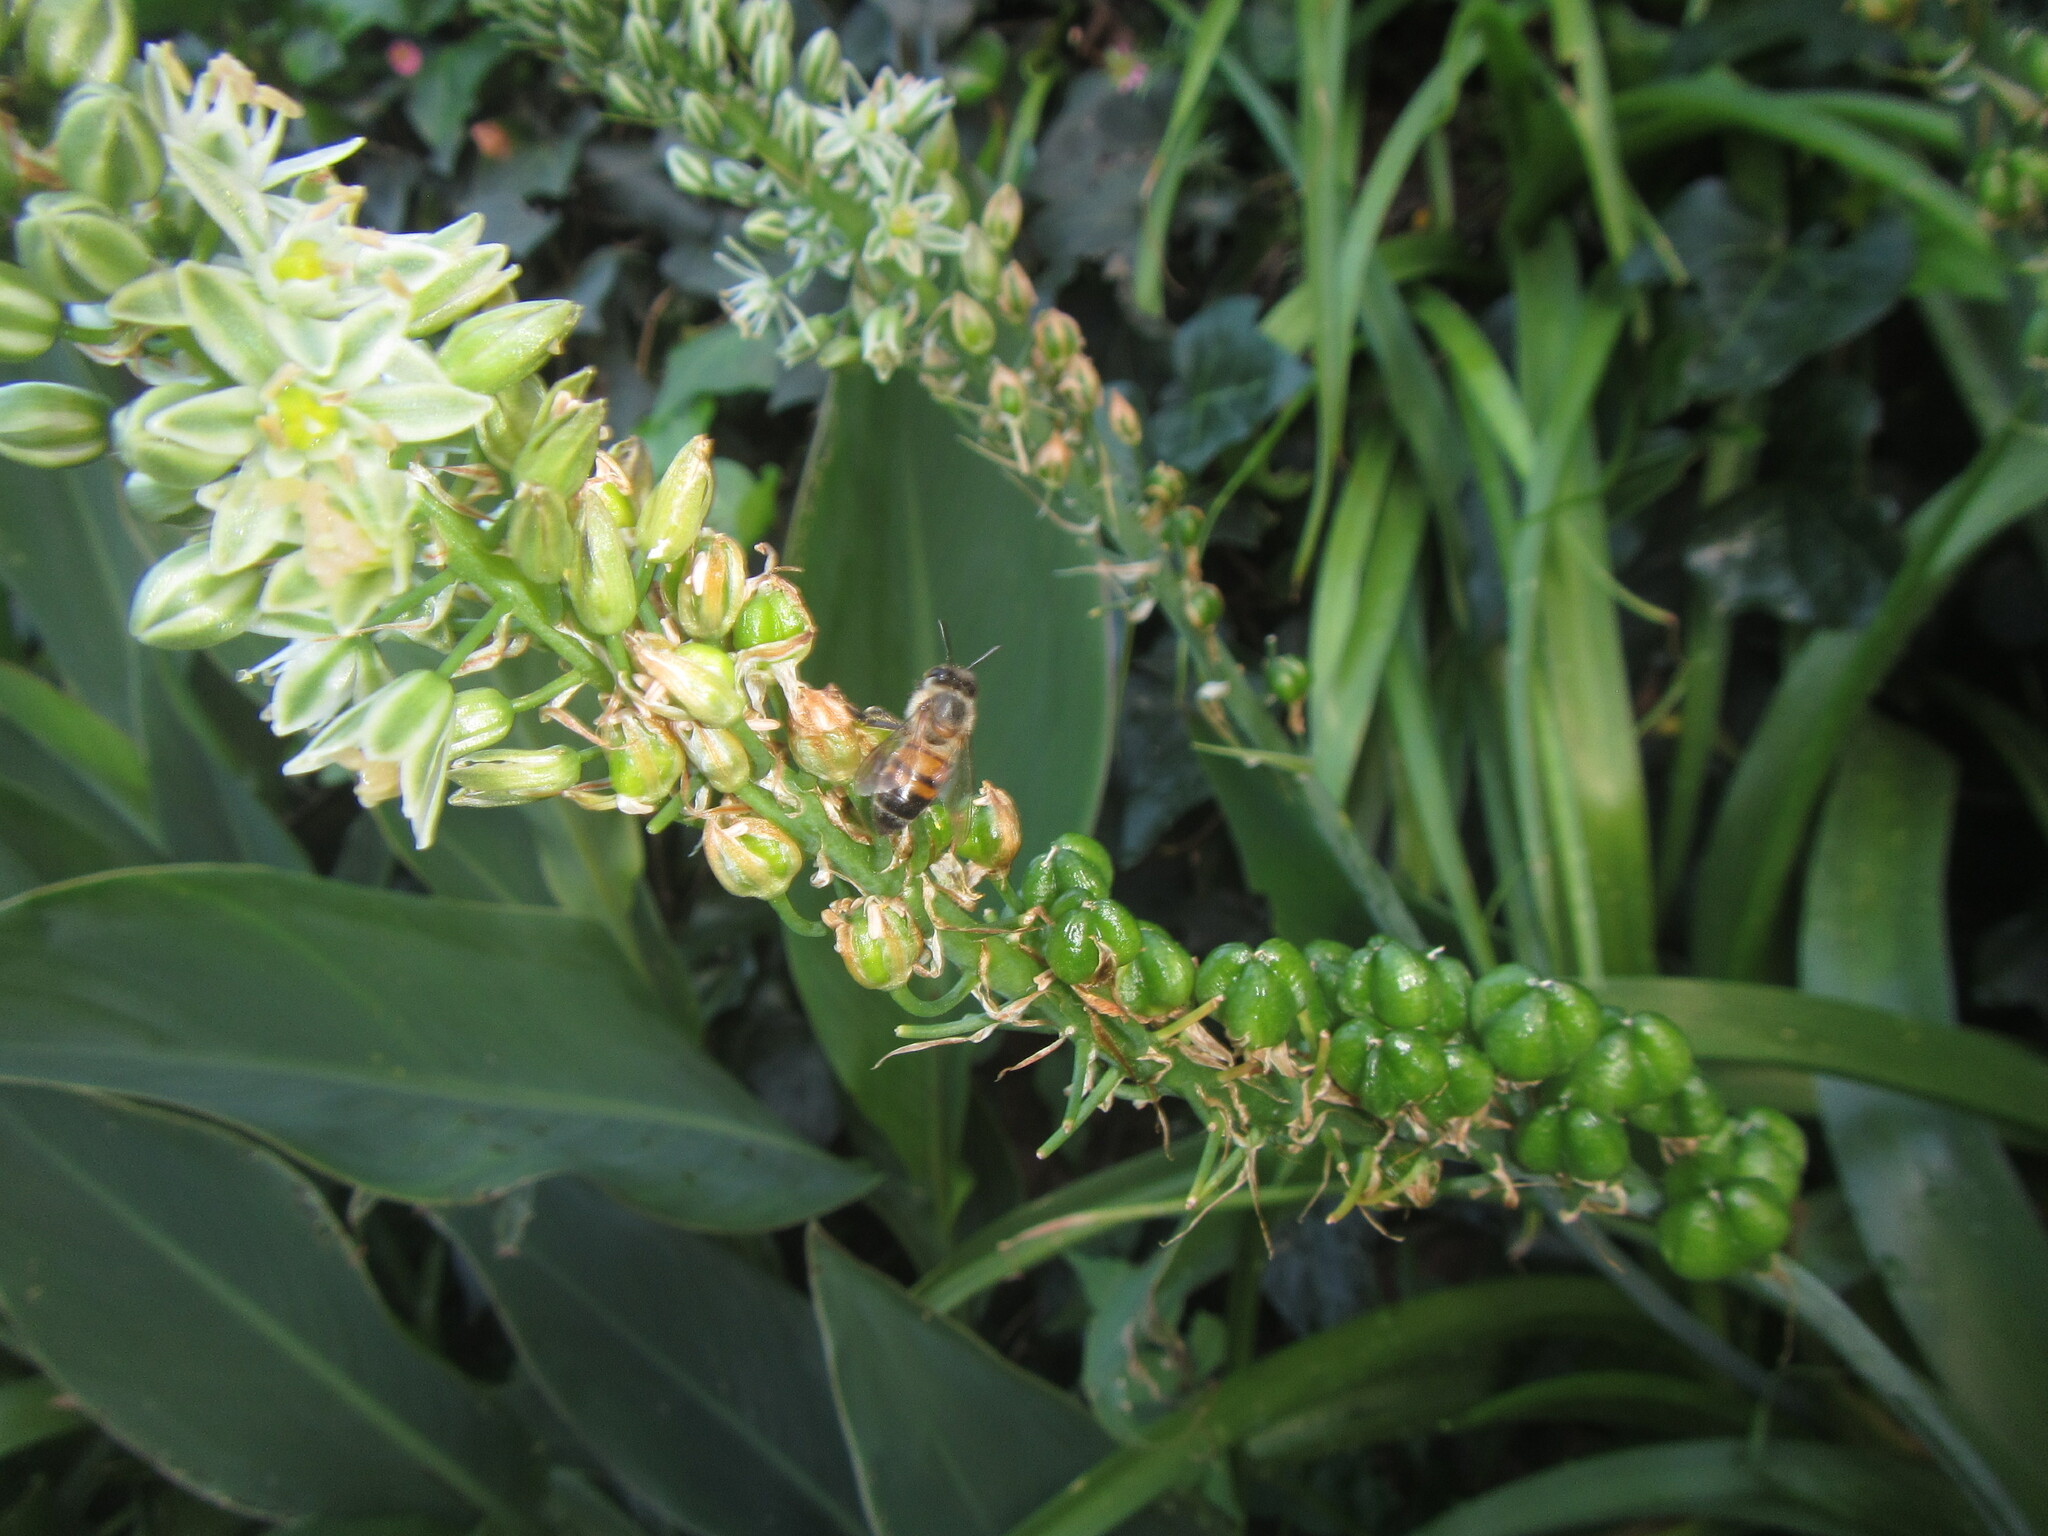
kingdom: Animalia
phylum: Arthropoda
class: Insecta
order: Hymenoptera
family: Apidae
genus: Apis
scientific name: Apis mellifera
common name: Honey bee
